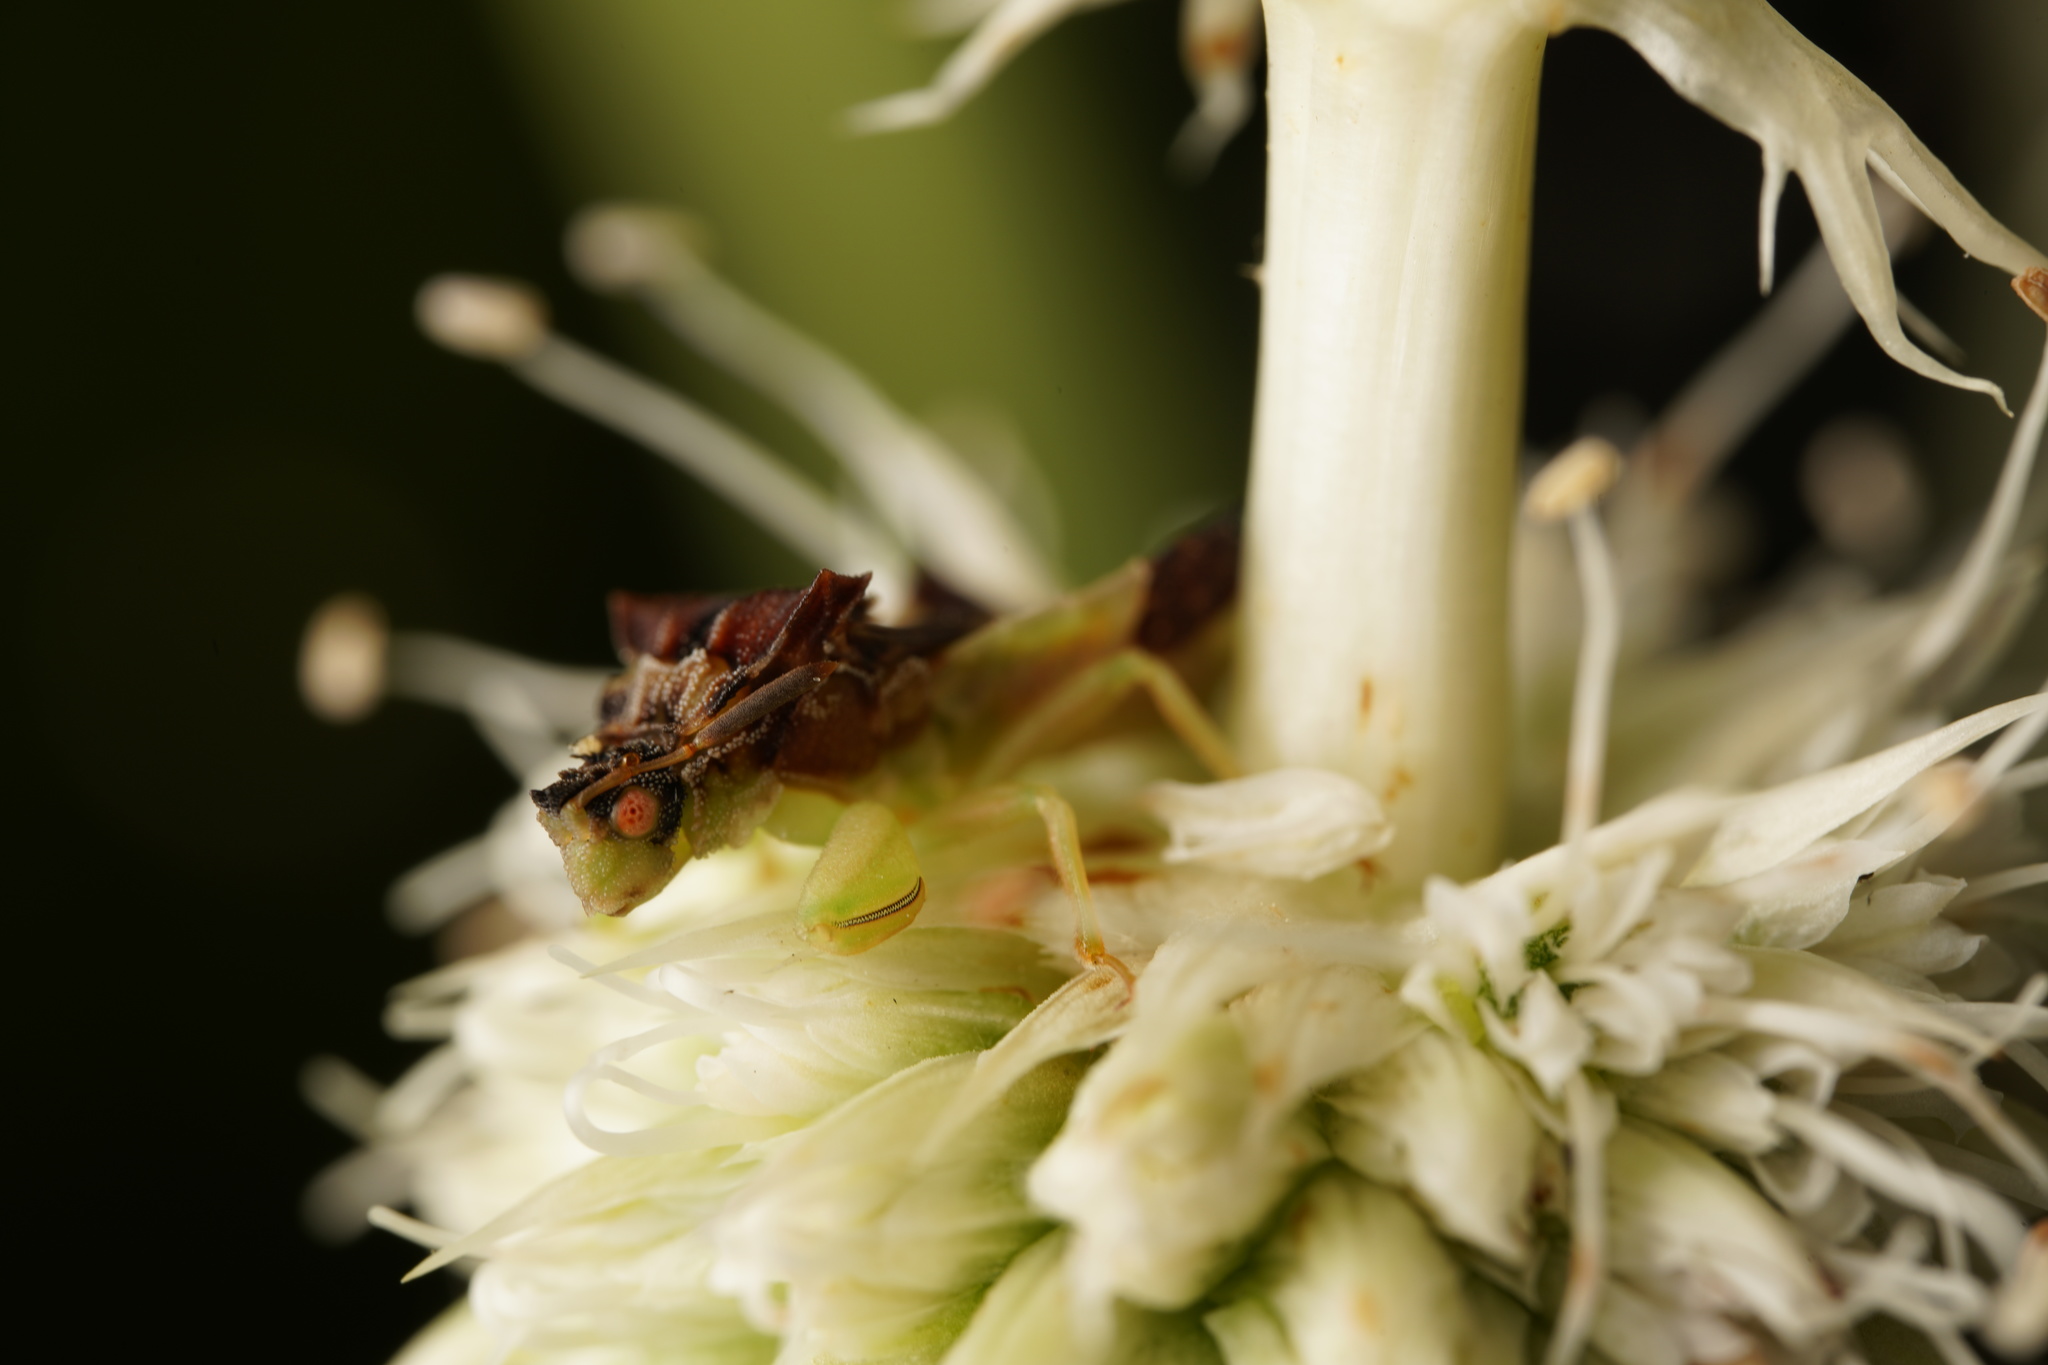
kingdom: Animalia
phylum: Arthropoda
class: Insecta
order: Hemiptera
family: Reduviidae
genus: Phymata
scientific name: Phymata pennsylvanica
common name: Pennsylvania ambush bug
